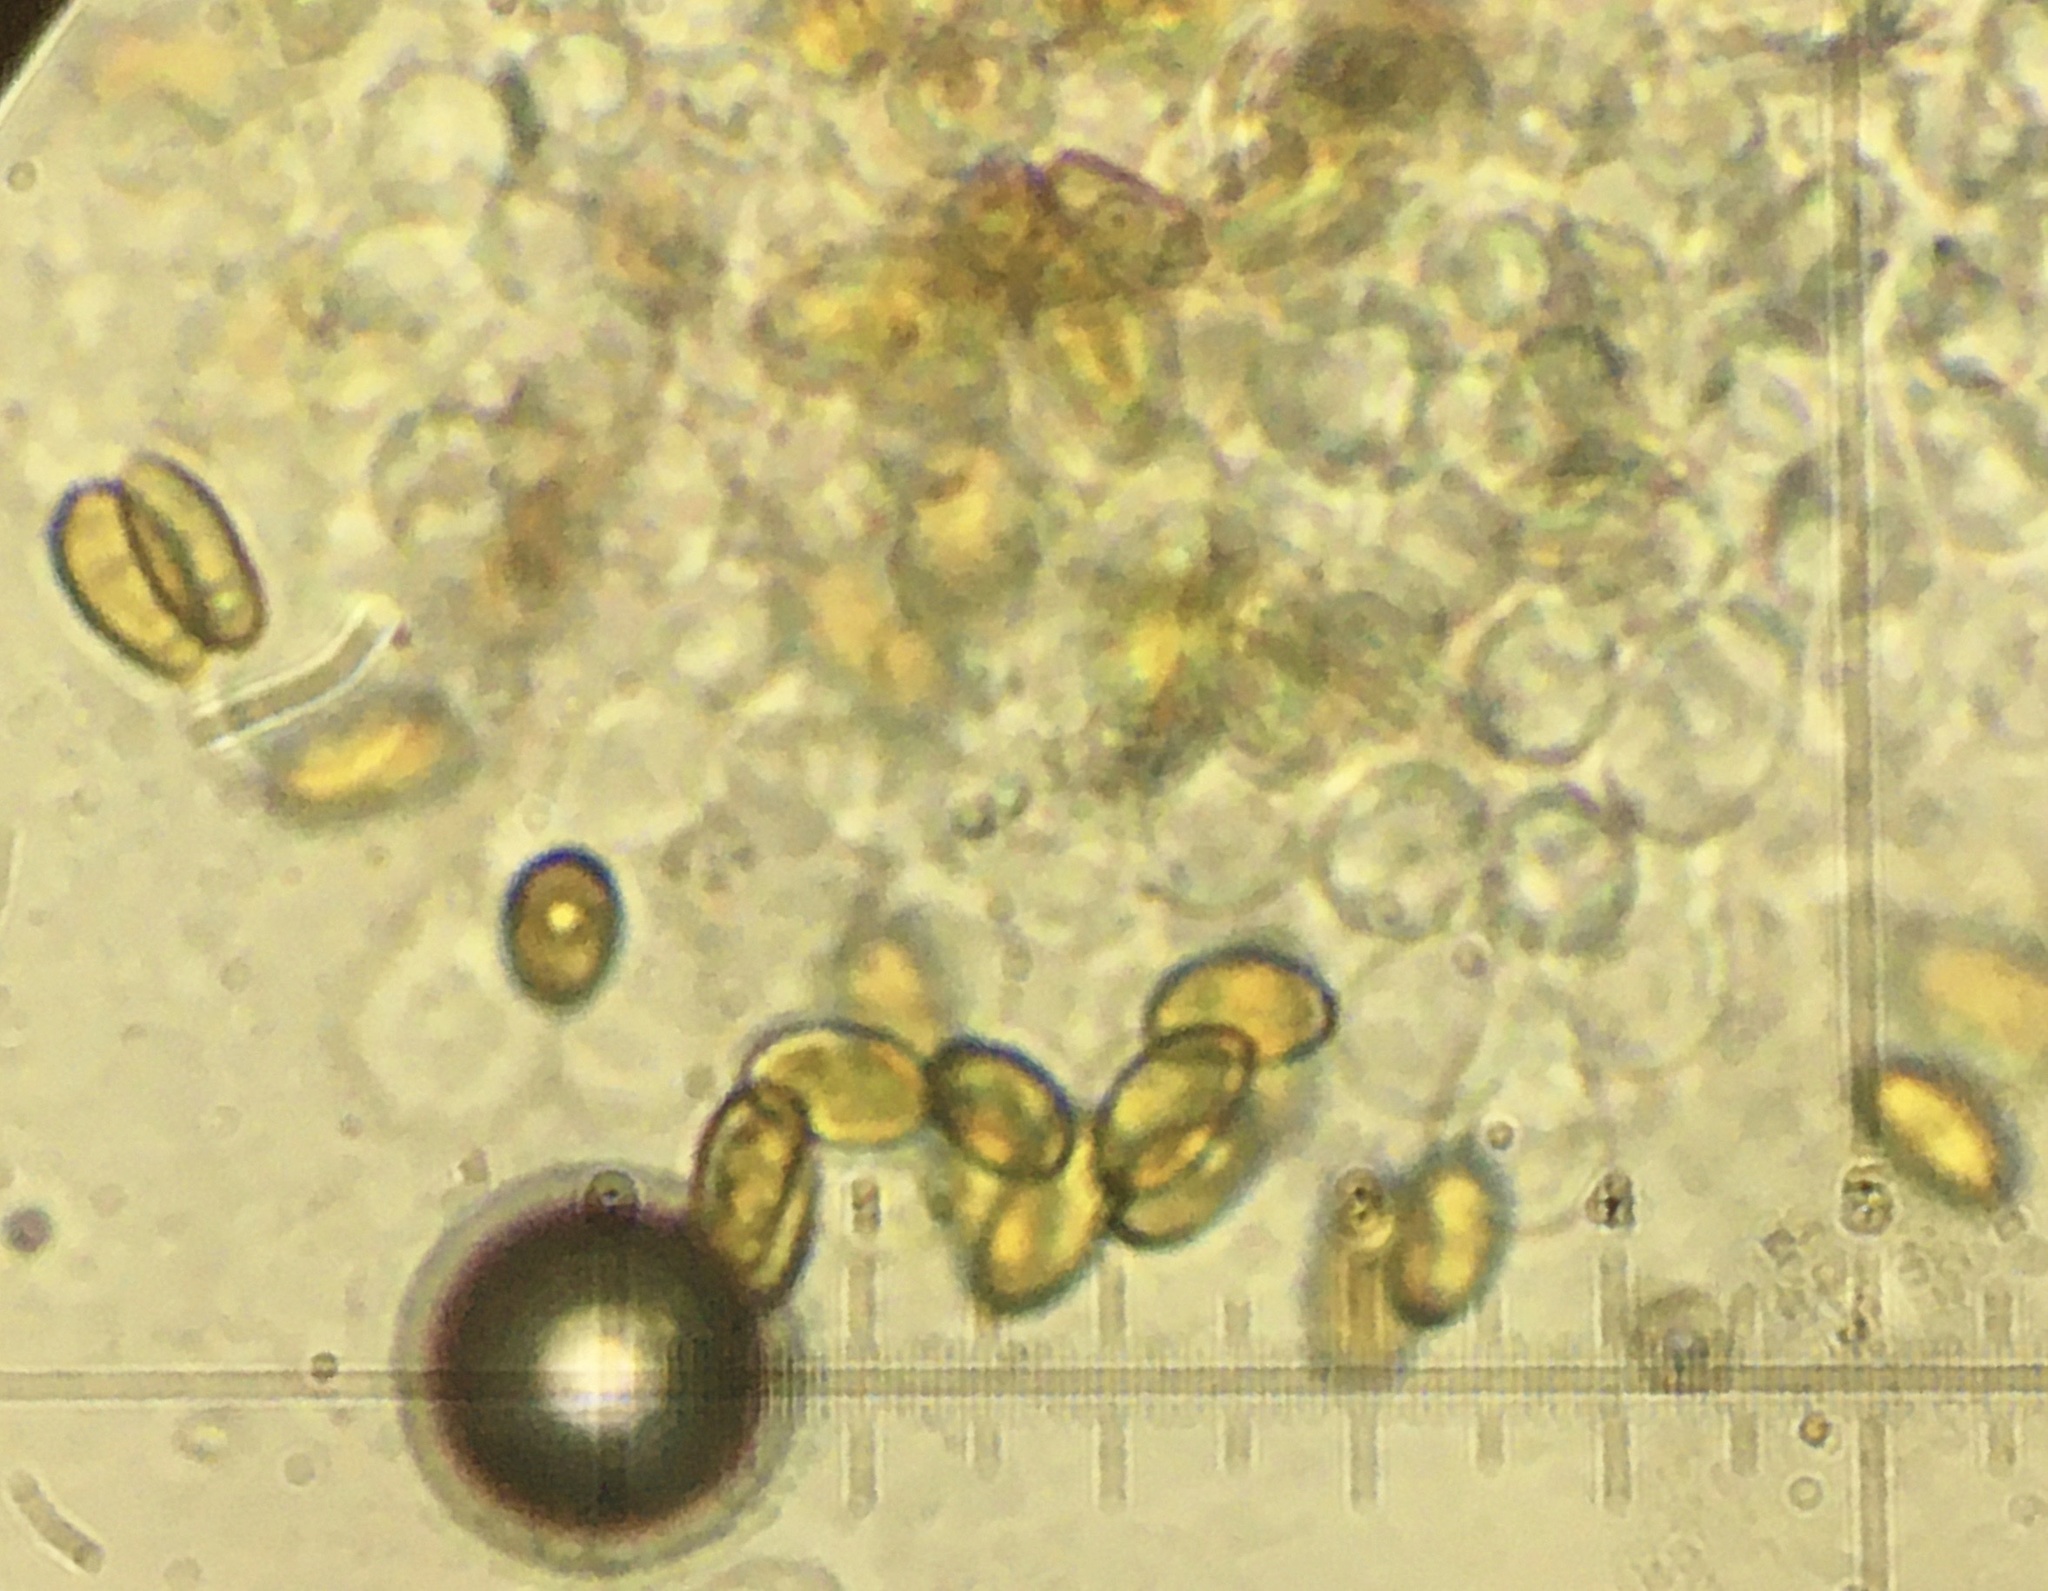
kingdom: Fungi
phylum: Basidiomycota
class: Agaricomycetes
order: Agaricales
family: Omphalotaceae
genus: Gymnopus
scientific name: Gymnopus junquilleus
